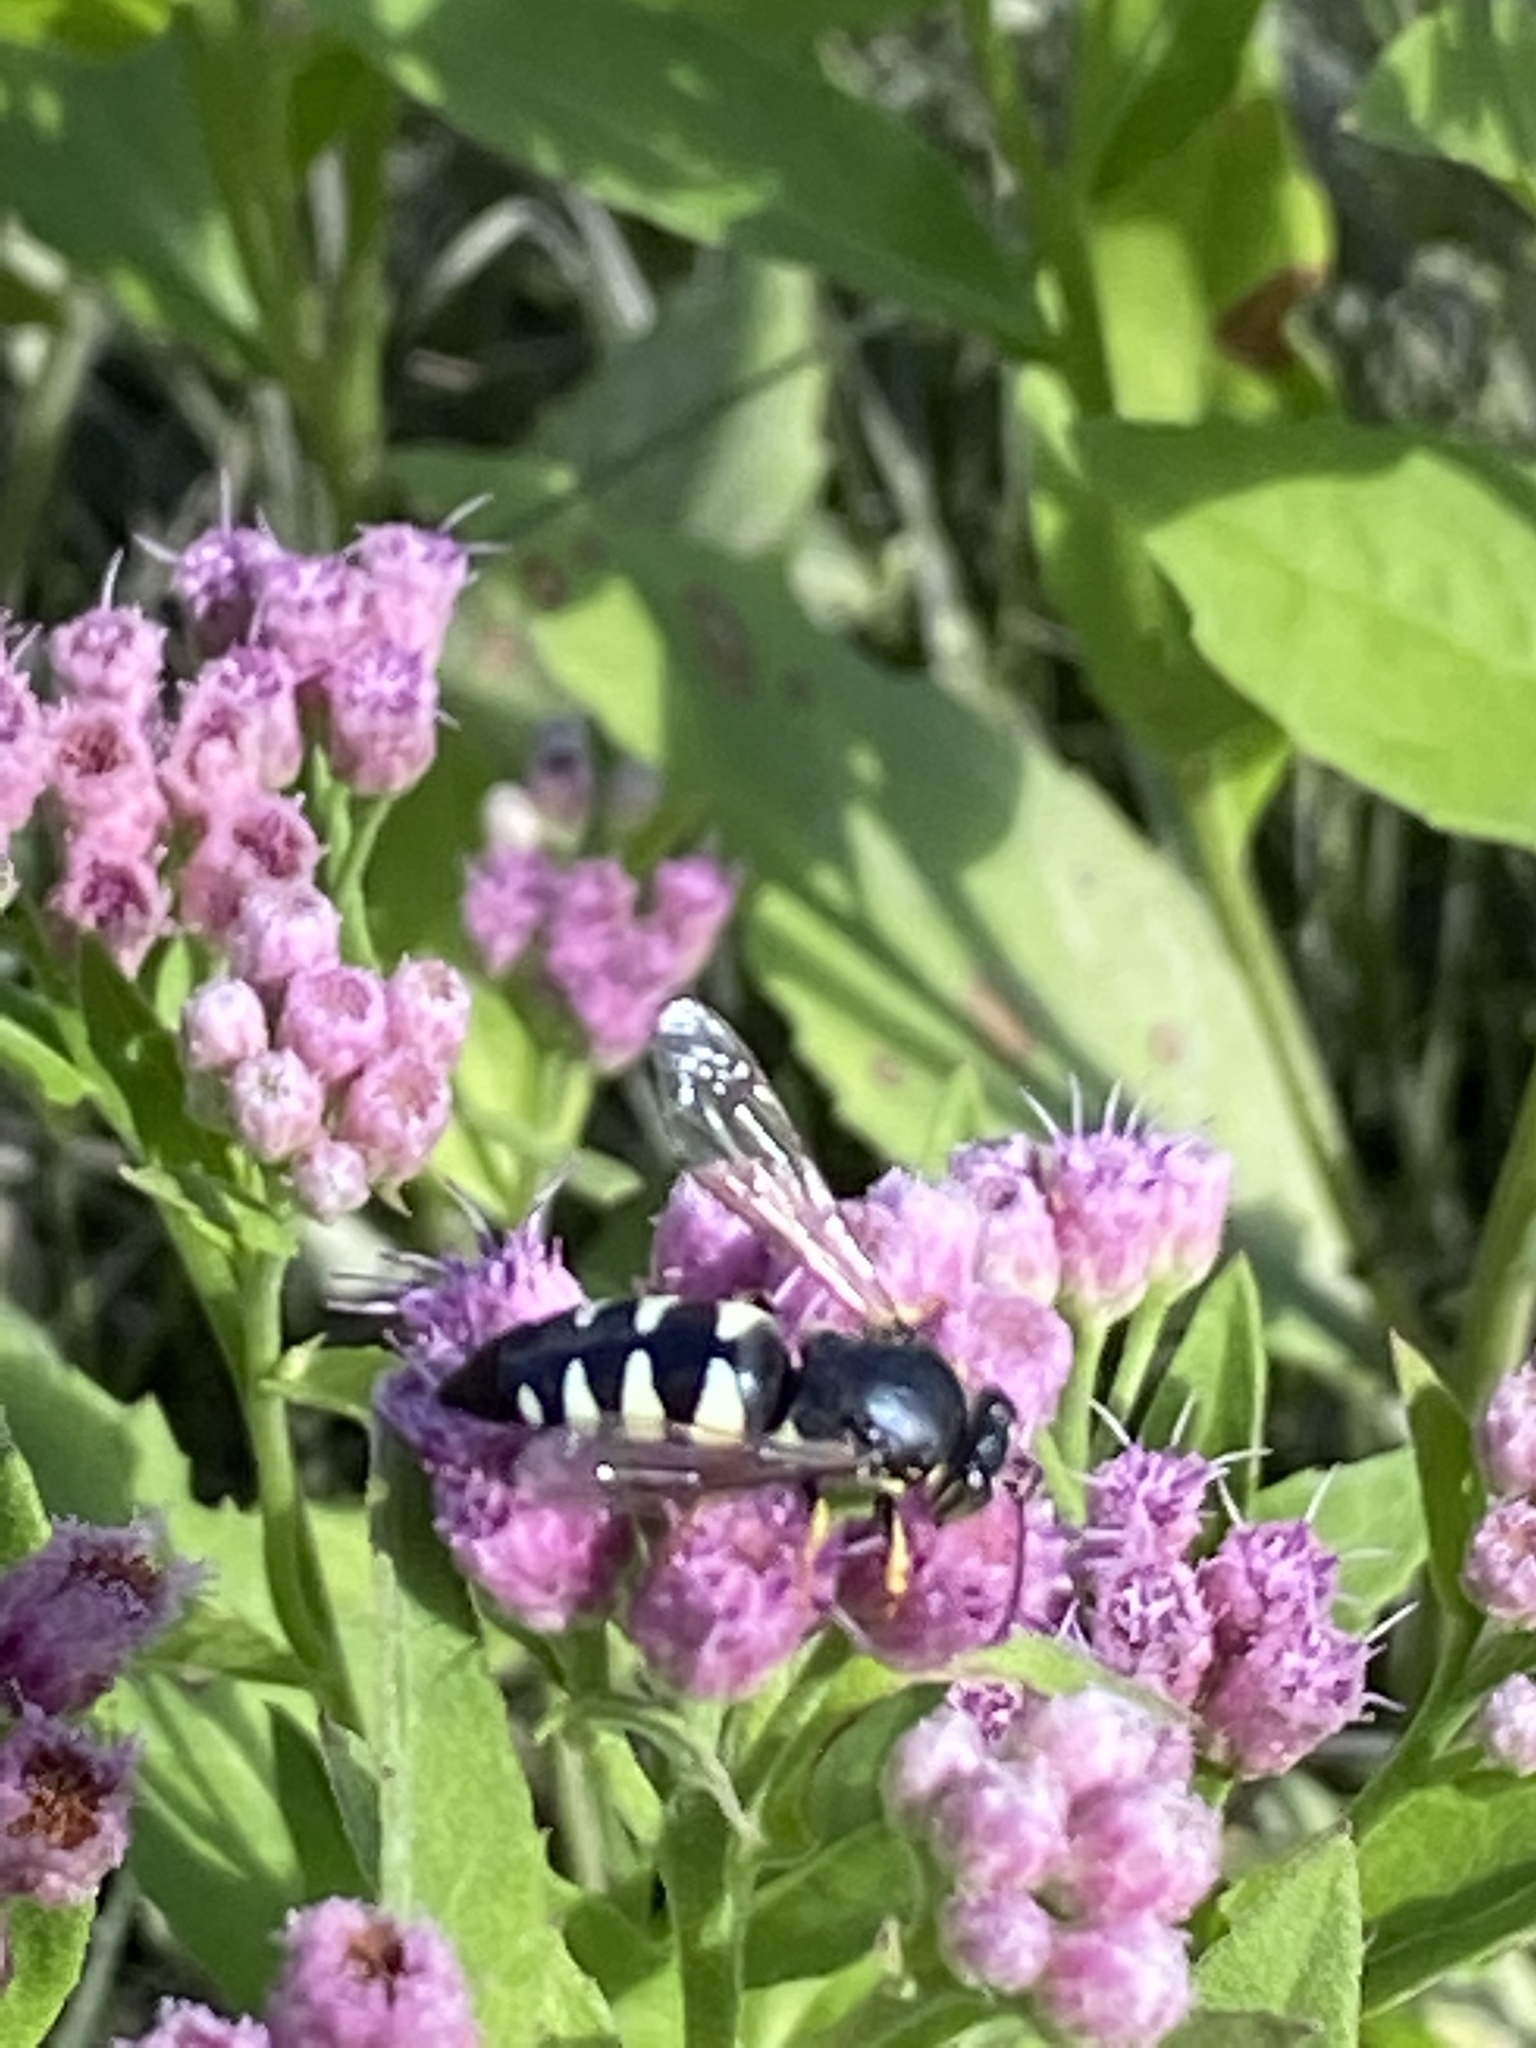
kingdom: Animalia
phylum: Arthropoda
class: Insecta
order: Hymenoptera
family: Crabronidae
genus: Bicyrtes
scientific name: Bicyrtes quadrifasciatus
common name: Four-banded stink bug hunter wasp
